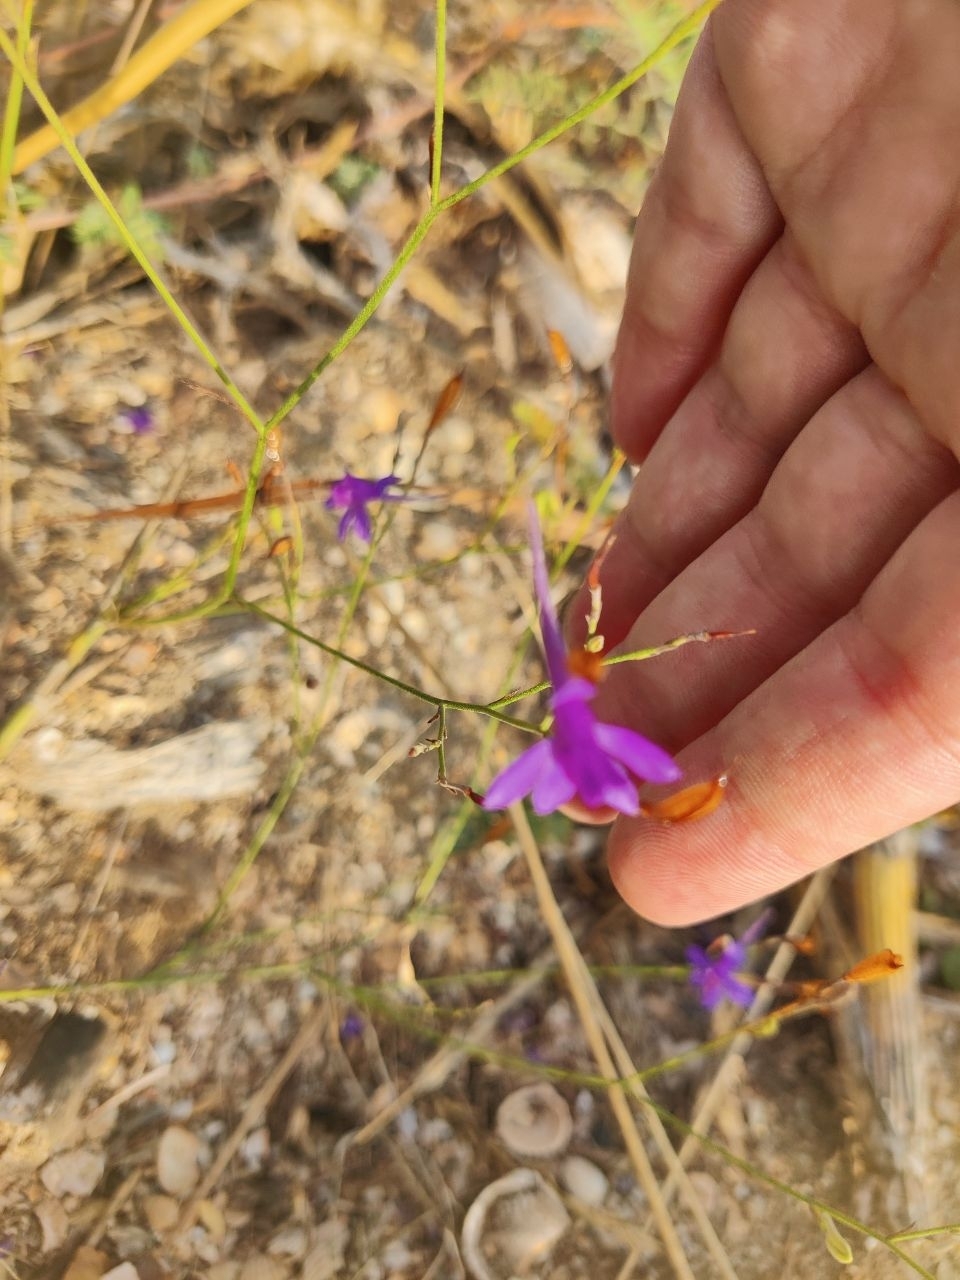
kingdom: Plantae
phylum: Tracheophyta
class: Magnoliopsida
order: Ranunculales
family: Ranunculaceae
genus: Delphinium
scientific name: Delphinium consolida
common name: Branching larkspur
